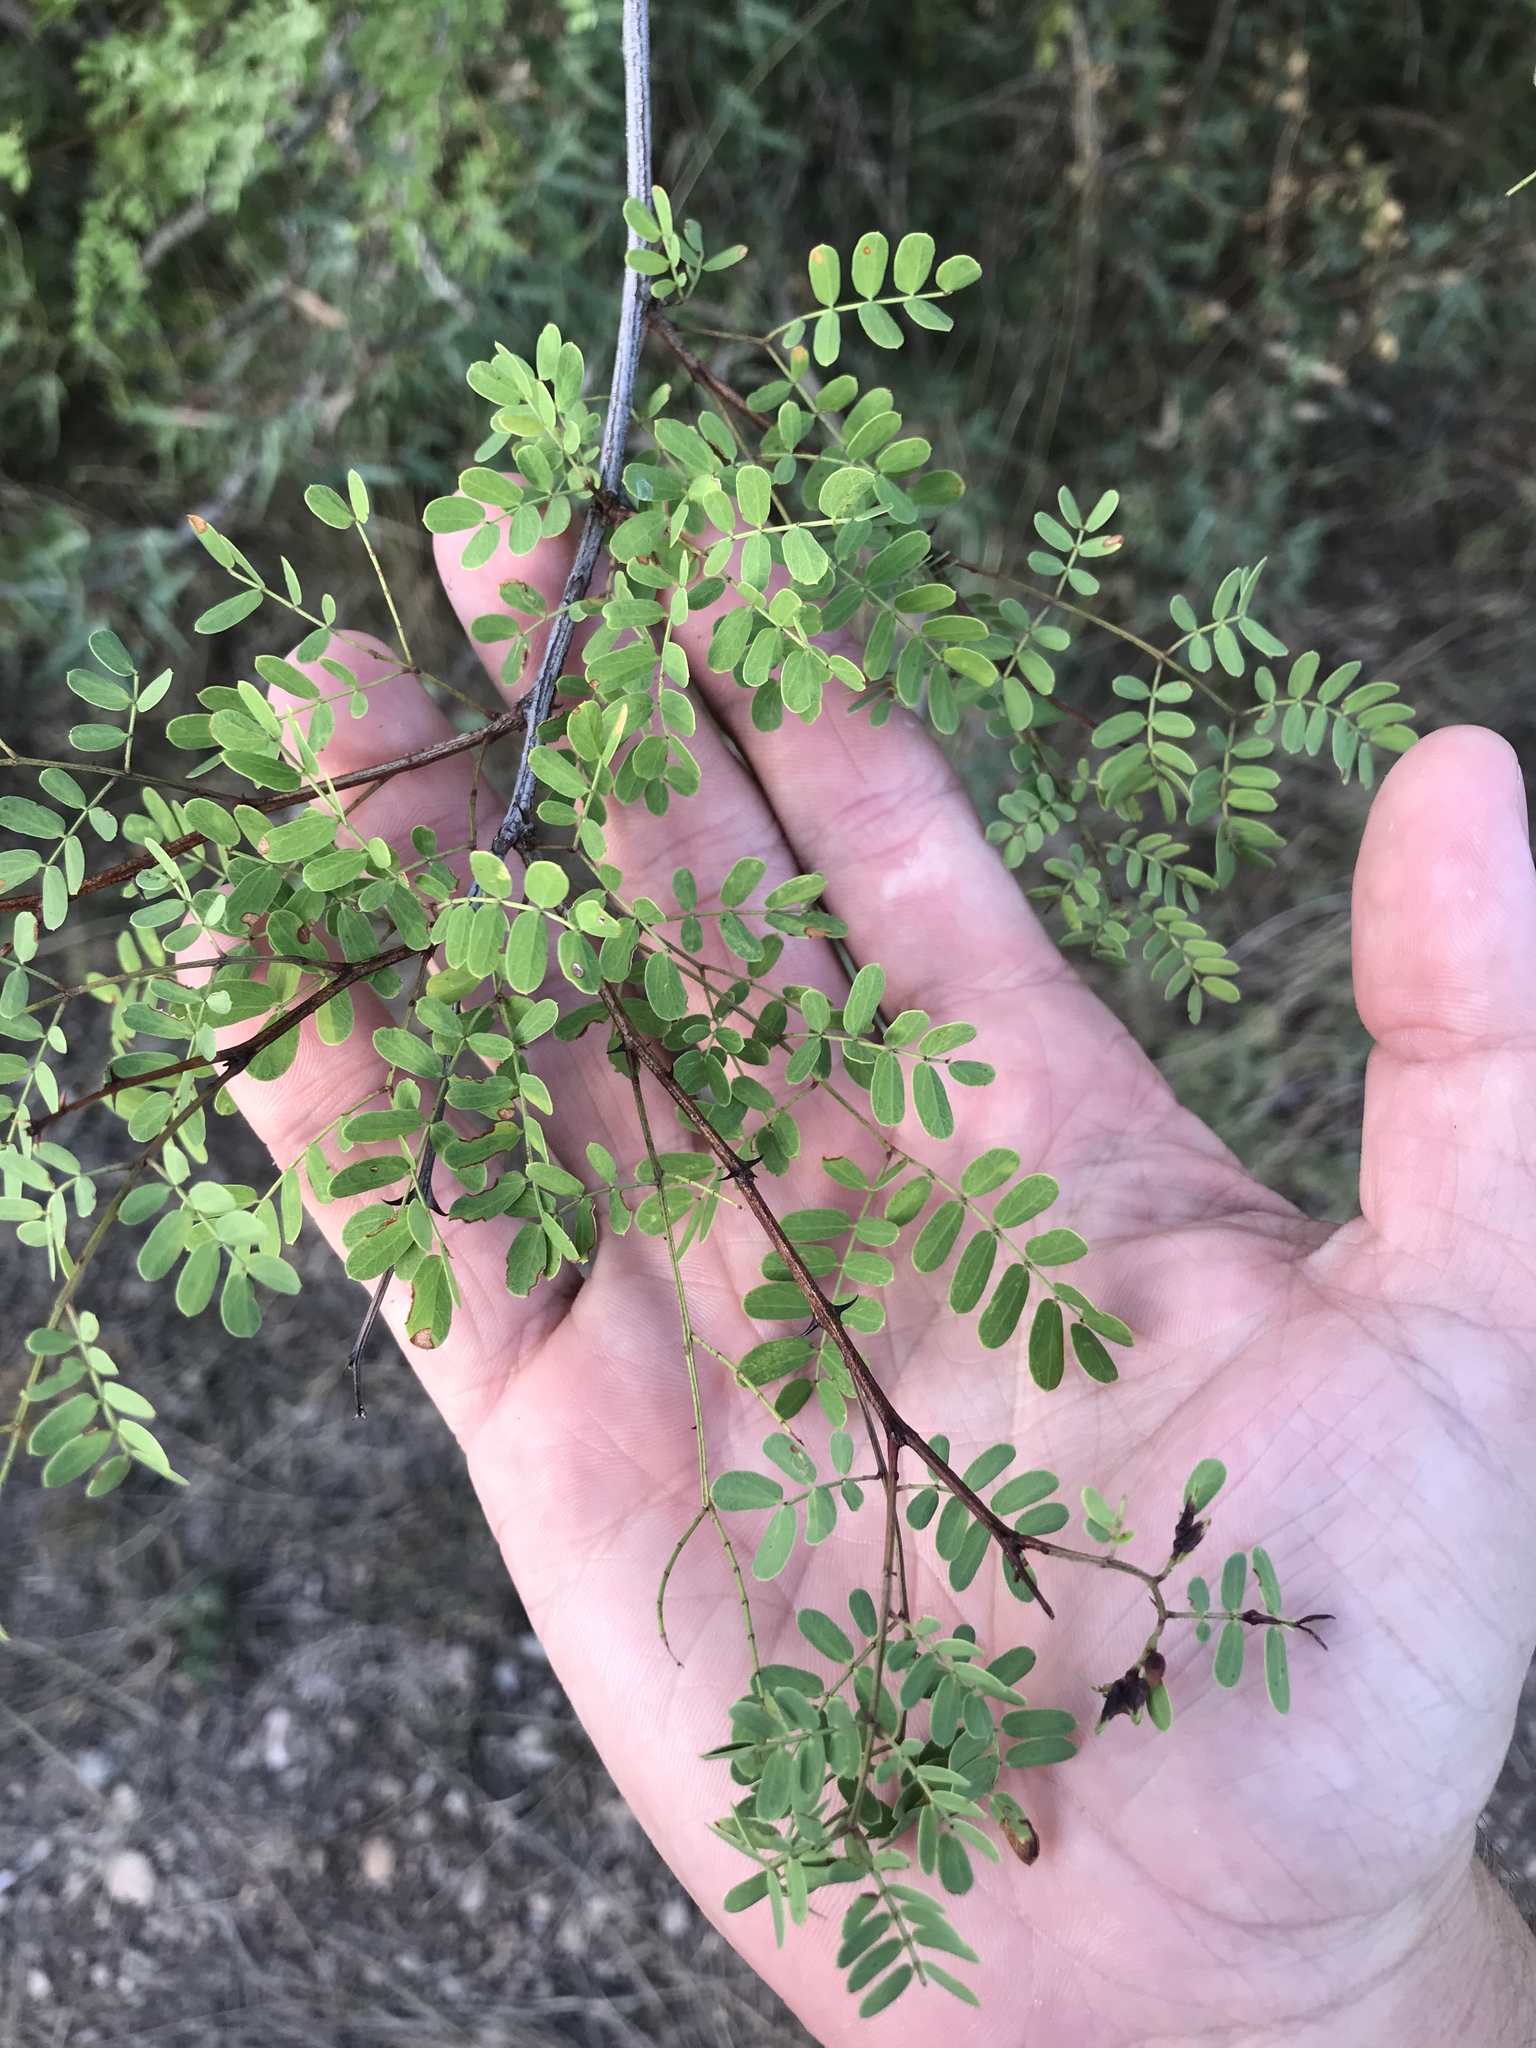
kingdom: Plantae
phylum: Tracheophyta
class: Magnoliopsida
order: Fabales
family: Fabaceae
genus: Senegalia
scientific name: Senegalia roemeriana
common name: Roemer's acacia
